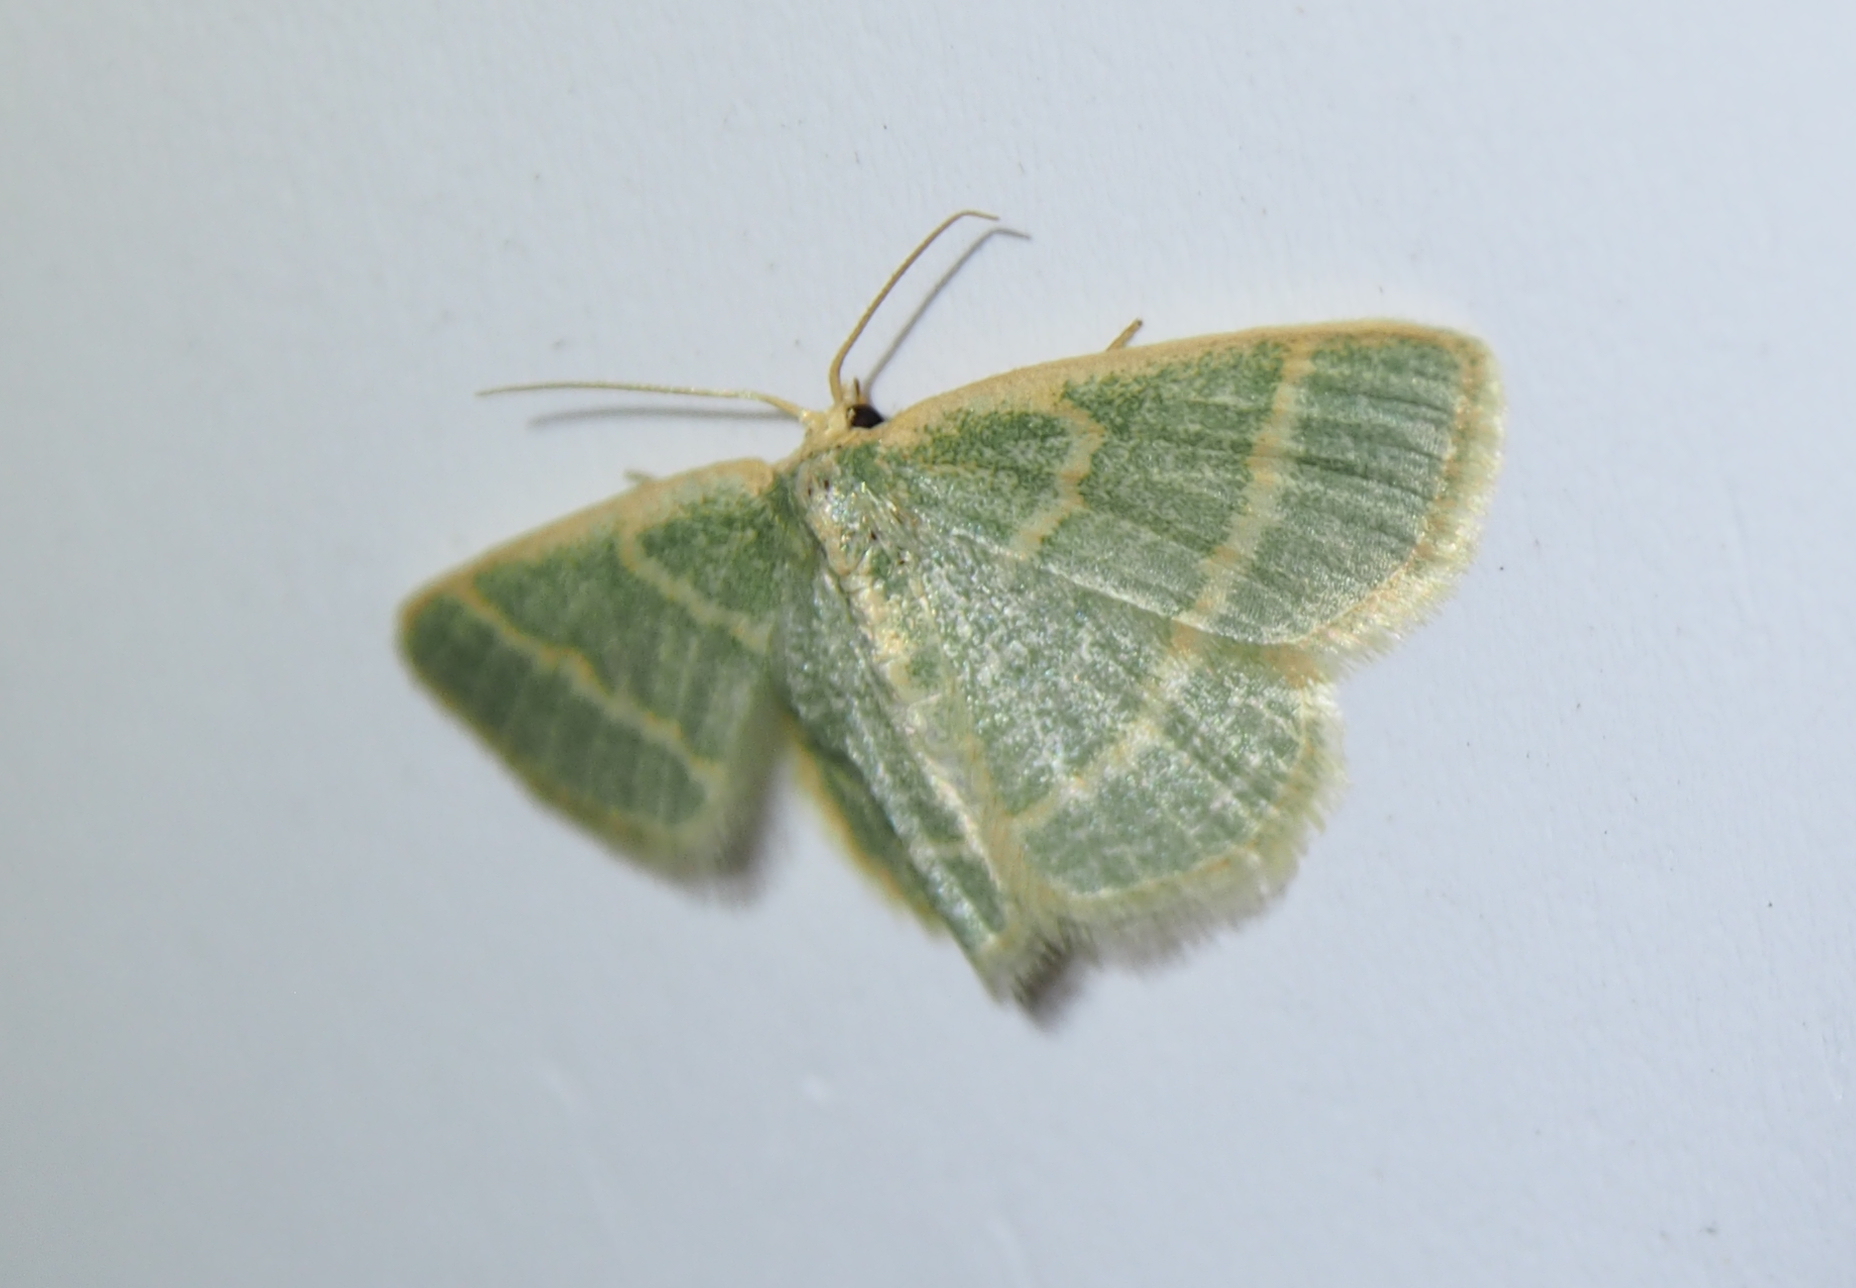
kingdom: Animalia
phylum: Arthropoda
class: Insecta
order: Lepidoptera
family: Geometridae
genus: Chlorochlamys
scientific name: Chlorochlamys chloroleucaria
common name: Blackberry looper
